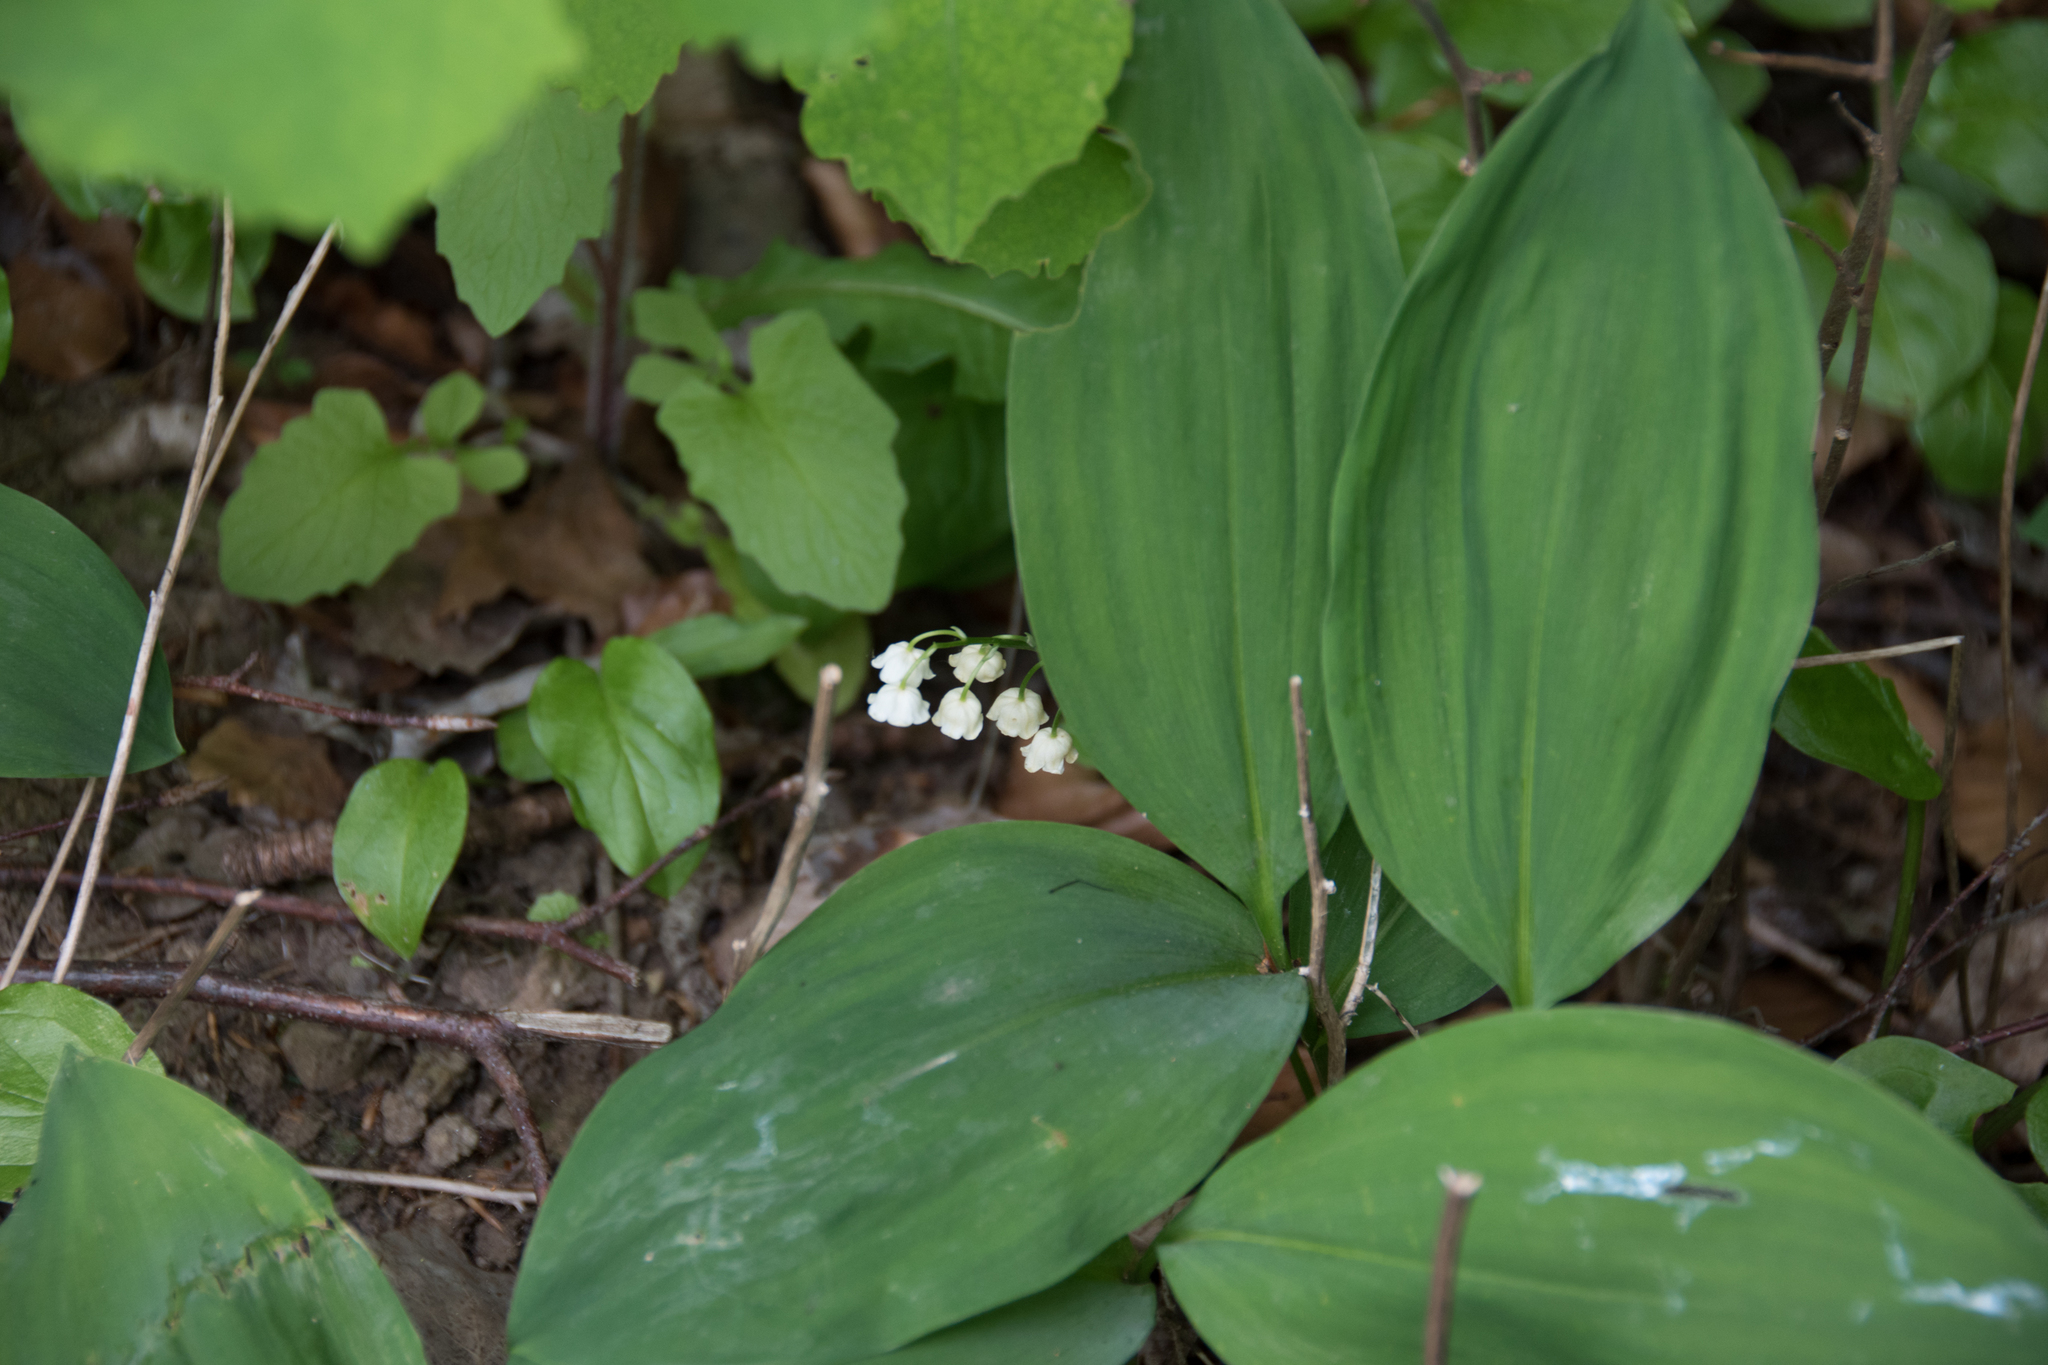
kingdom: Plantae
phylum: Tracheophyta
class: Liliopsida
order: Asparagales
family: Asparagaceae
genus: Convallaria
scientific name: Convallaria majalis
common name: Lily-of-the-valley
